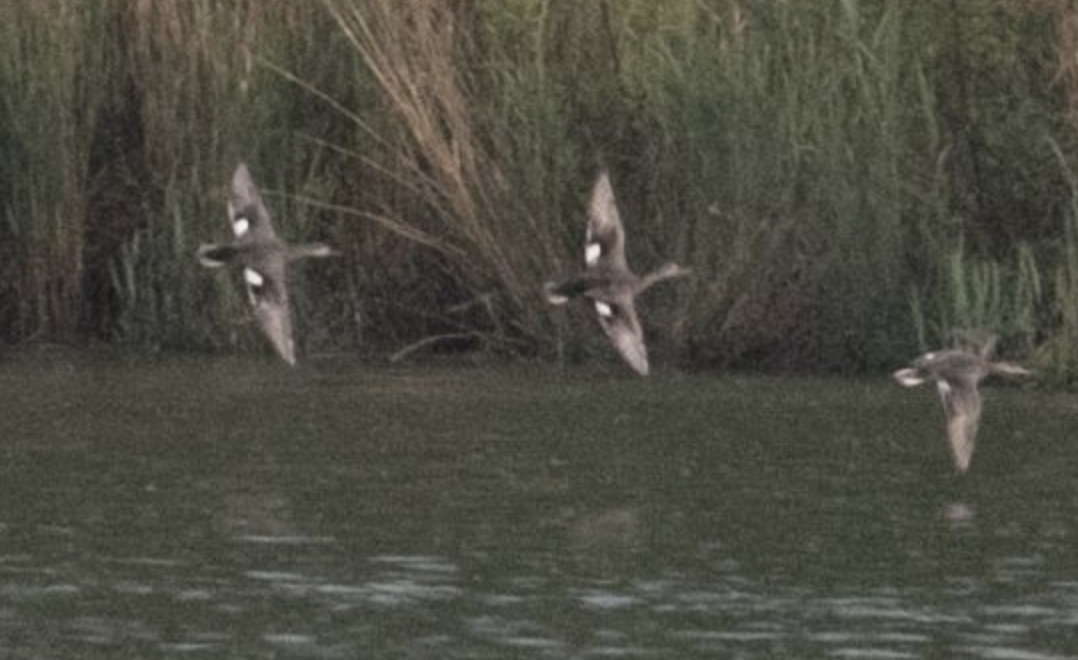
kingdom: Animalia
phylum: Chordata
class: Aves
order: Anseriformes
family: Anatidae
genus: Mareca
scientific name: Mareca strepera
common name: Gadwall
